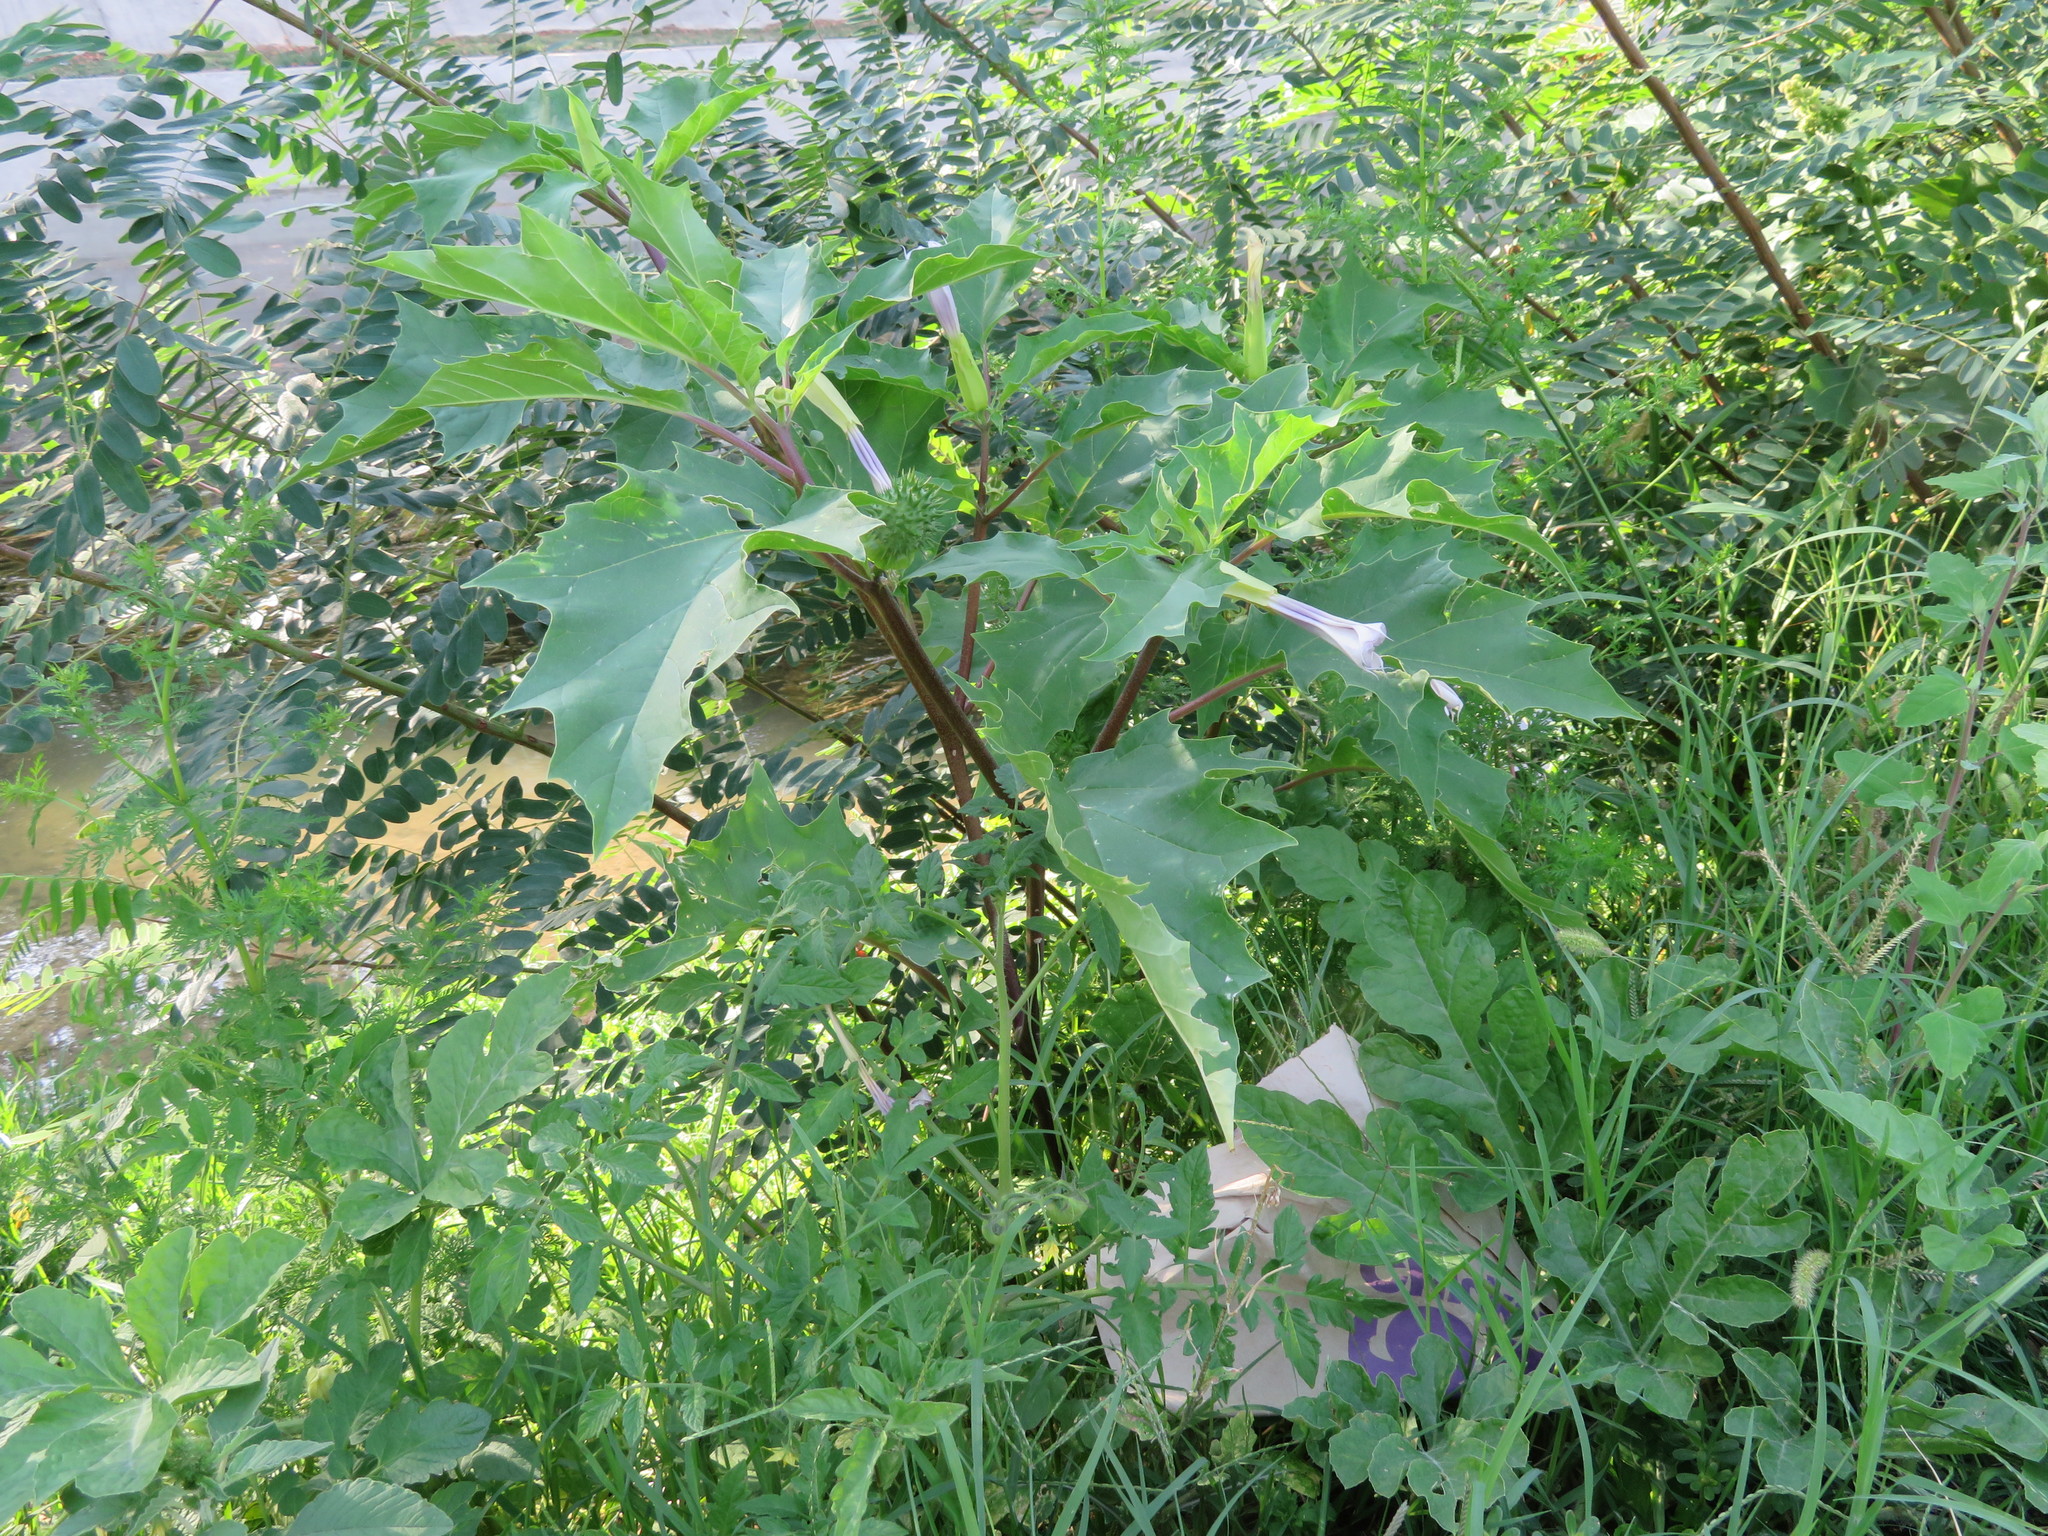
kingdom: Plantae
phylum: Tracheophyta
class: Magnoliopsida
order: Solanales
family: Solanaceae
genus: Datura
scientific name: Datura stramonium
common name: Thorn-apple
